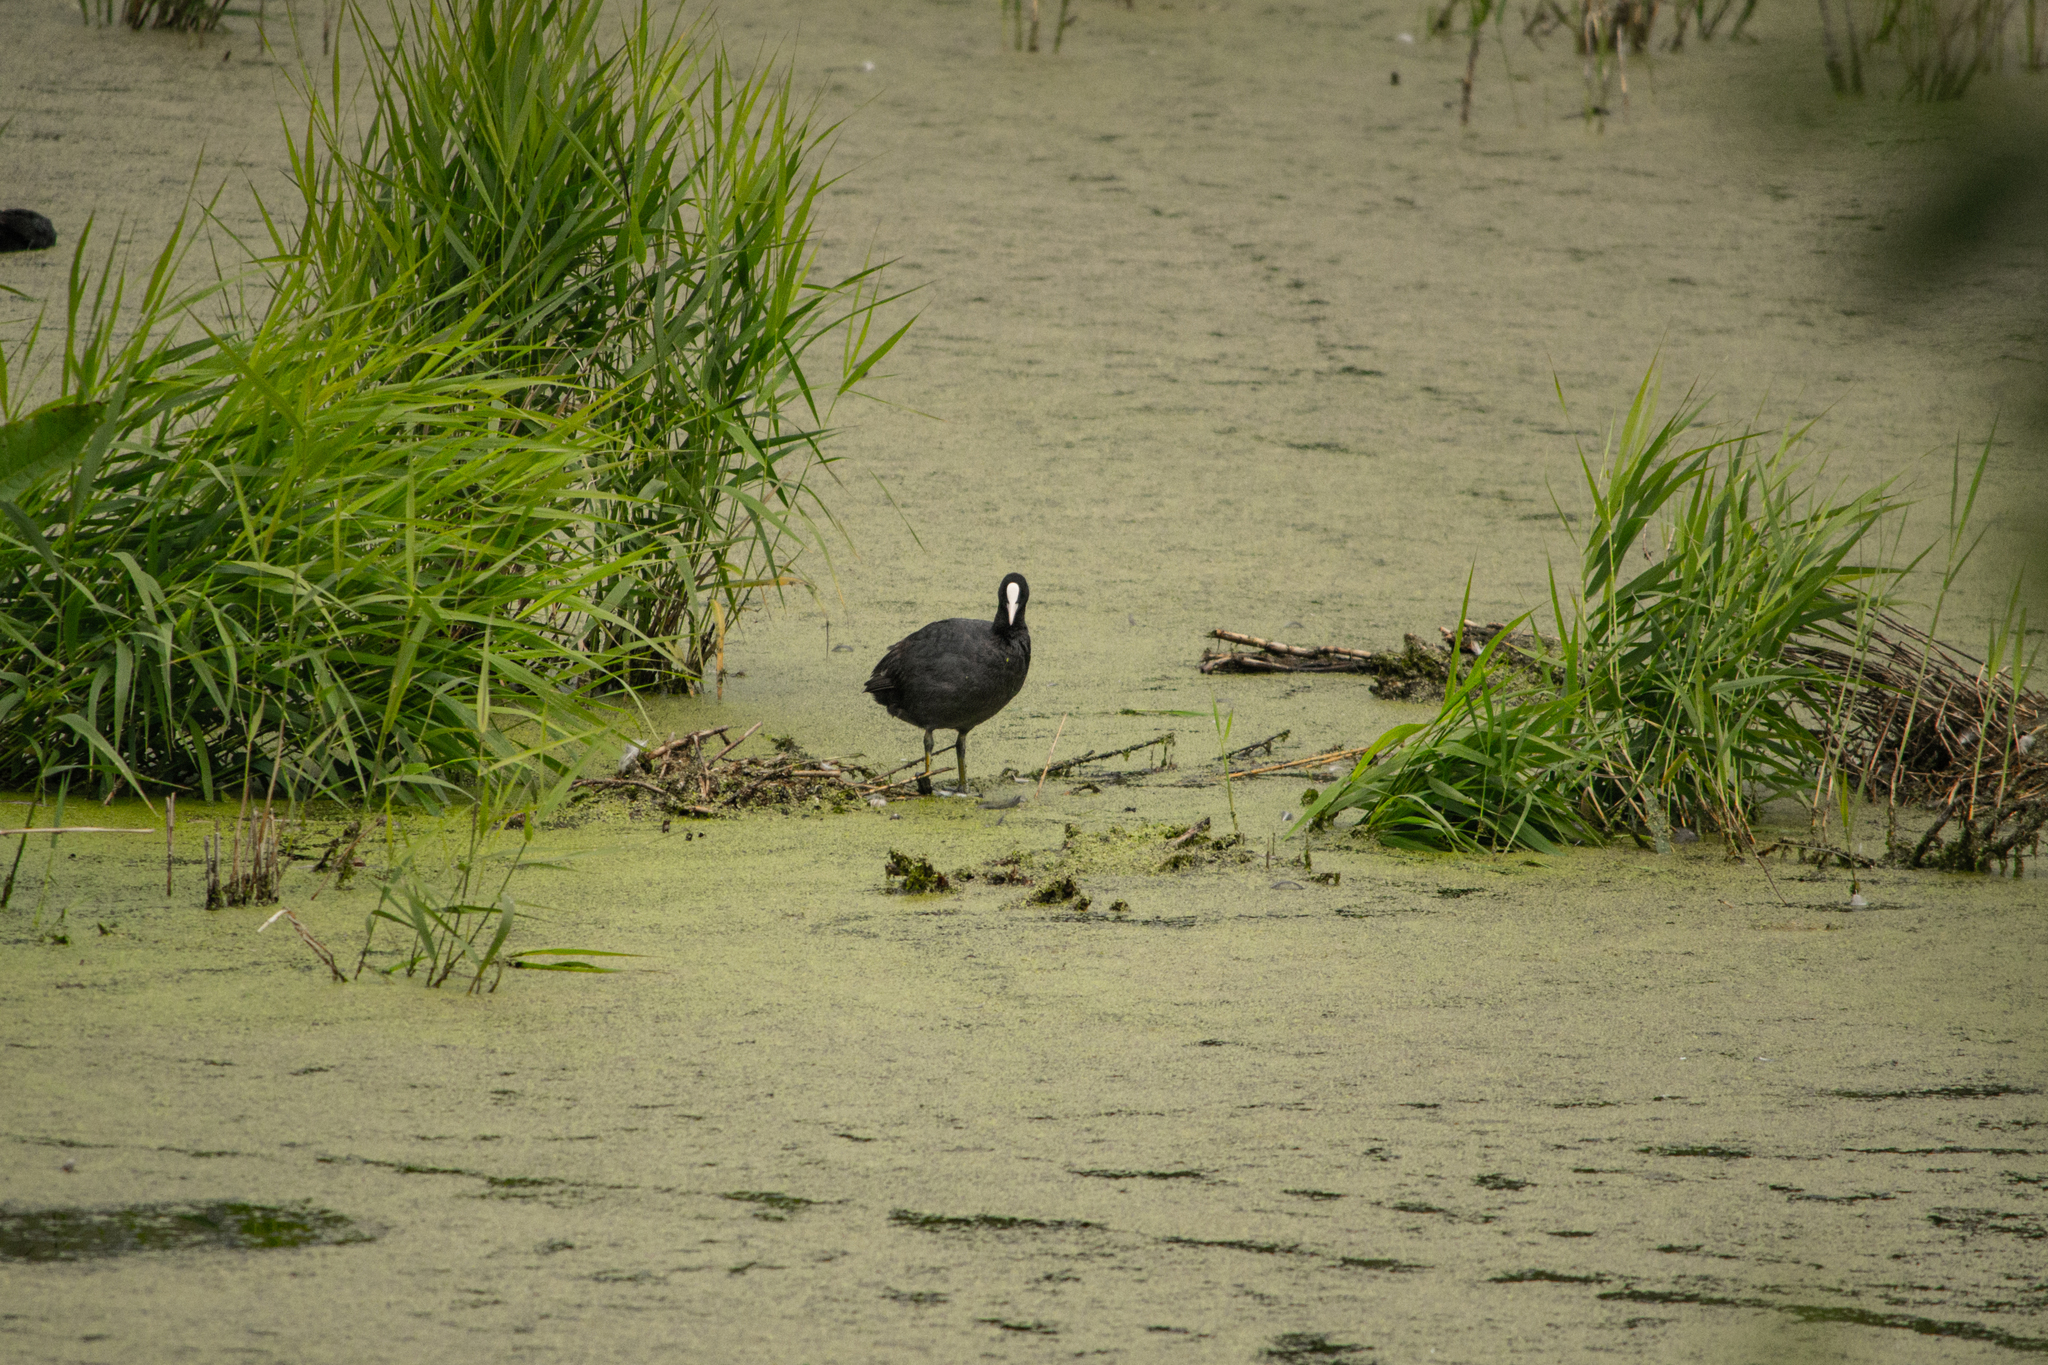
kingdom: Animalia
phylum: Chordata
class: Aves
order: Gruiformes
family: Rallidae
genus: Fulica
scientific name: Fulica atra
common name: Eurasian coot
